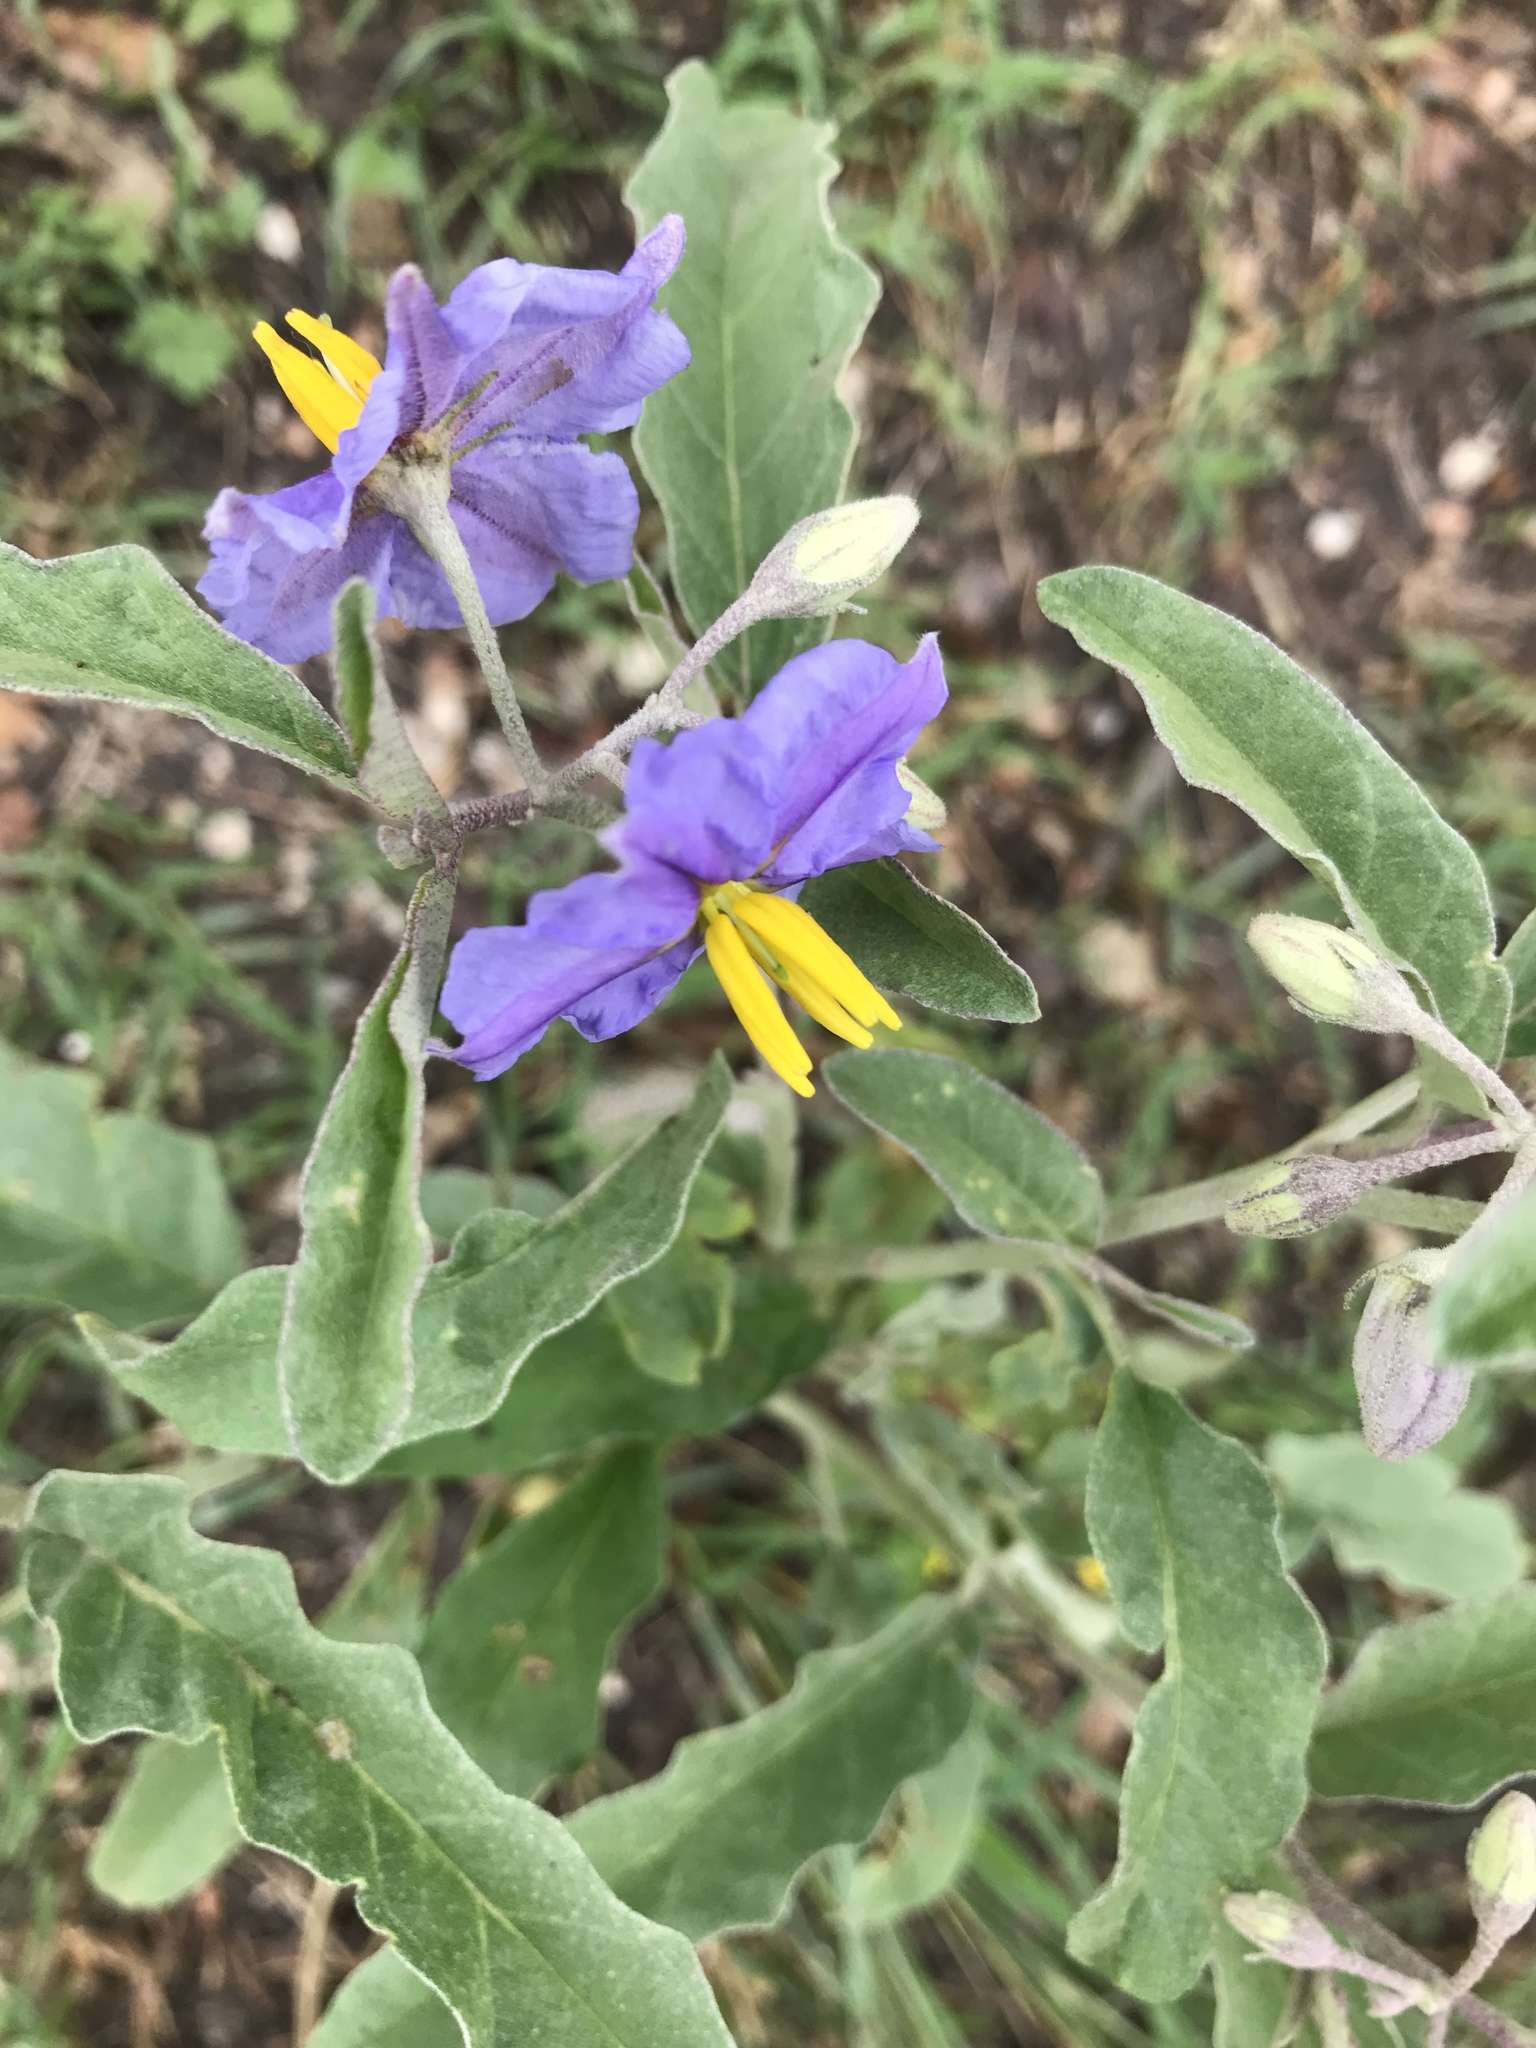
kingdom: Plantae
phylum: Tracheophyta
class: Magnoliopsida
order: Solanales
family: Solanaceae
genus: Solanum
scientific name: Solanum elaeagnifolium
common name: Silverleaf nightshade
